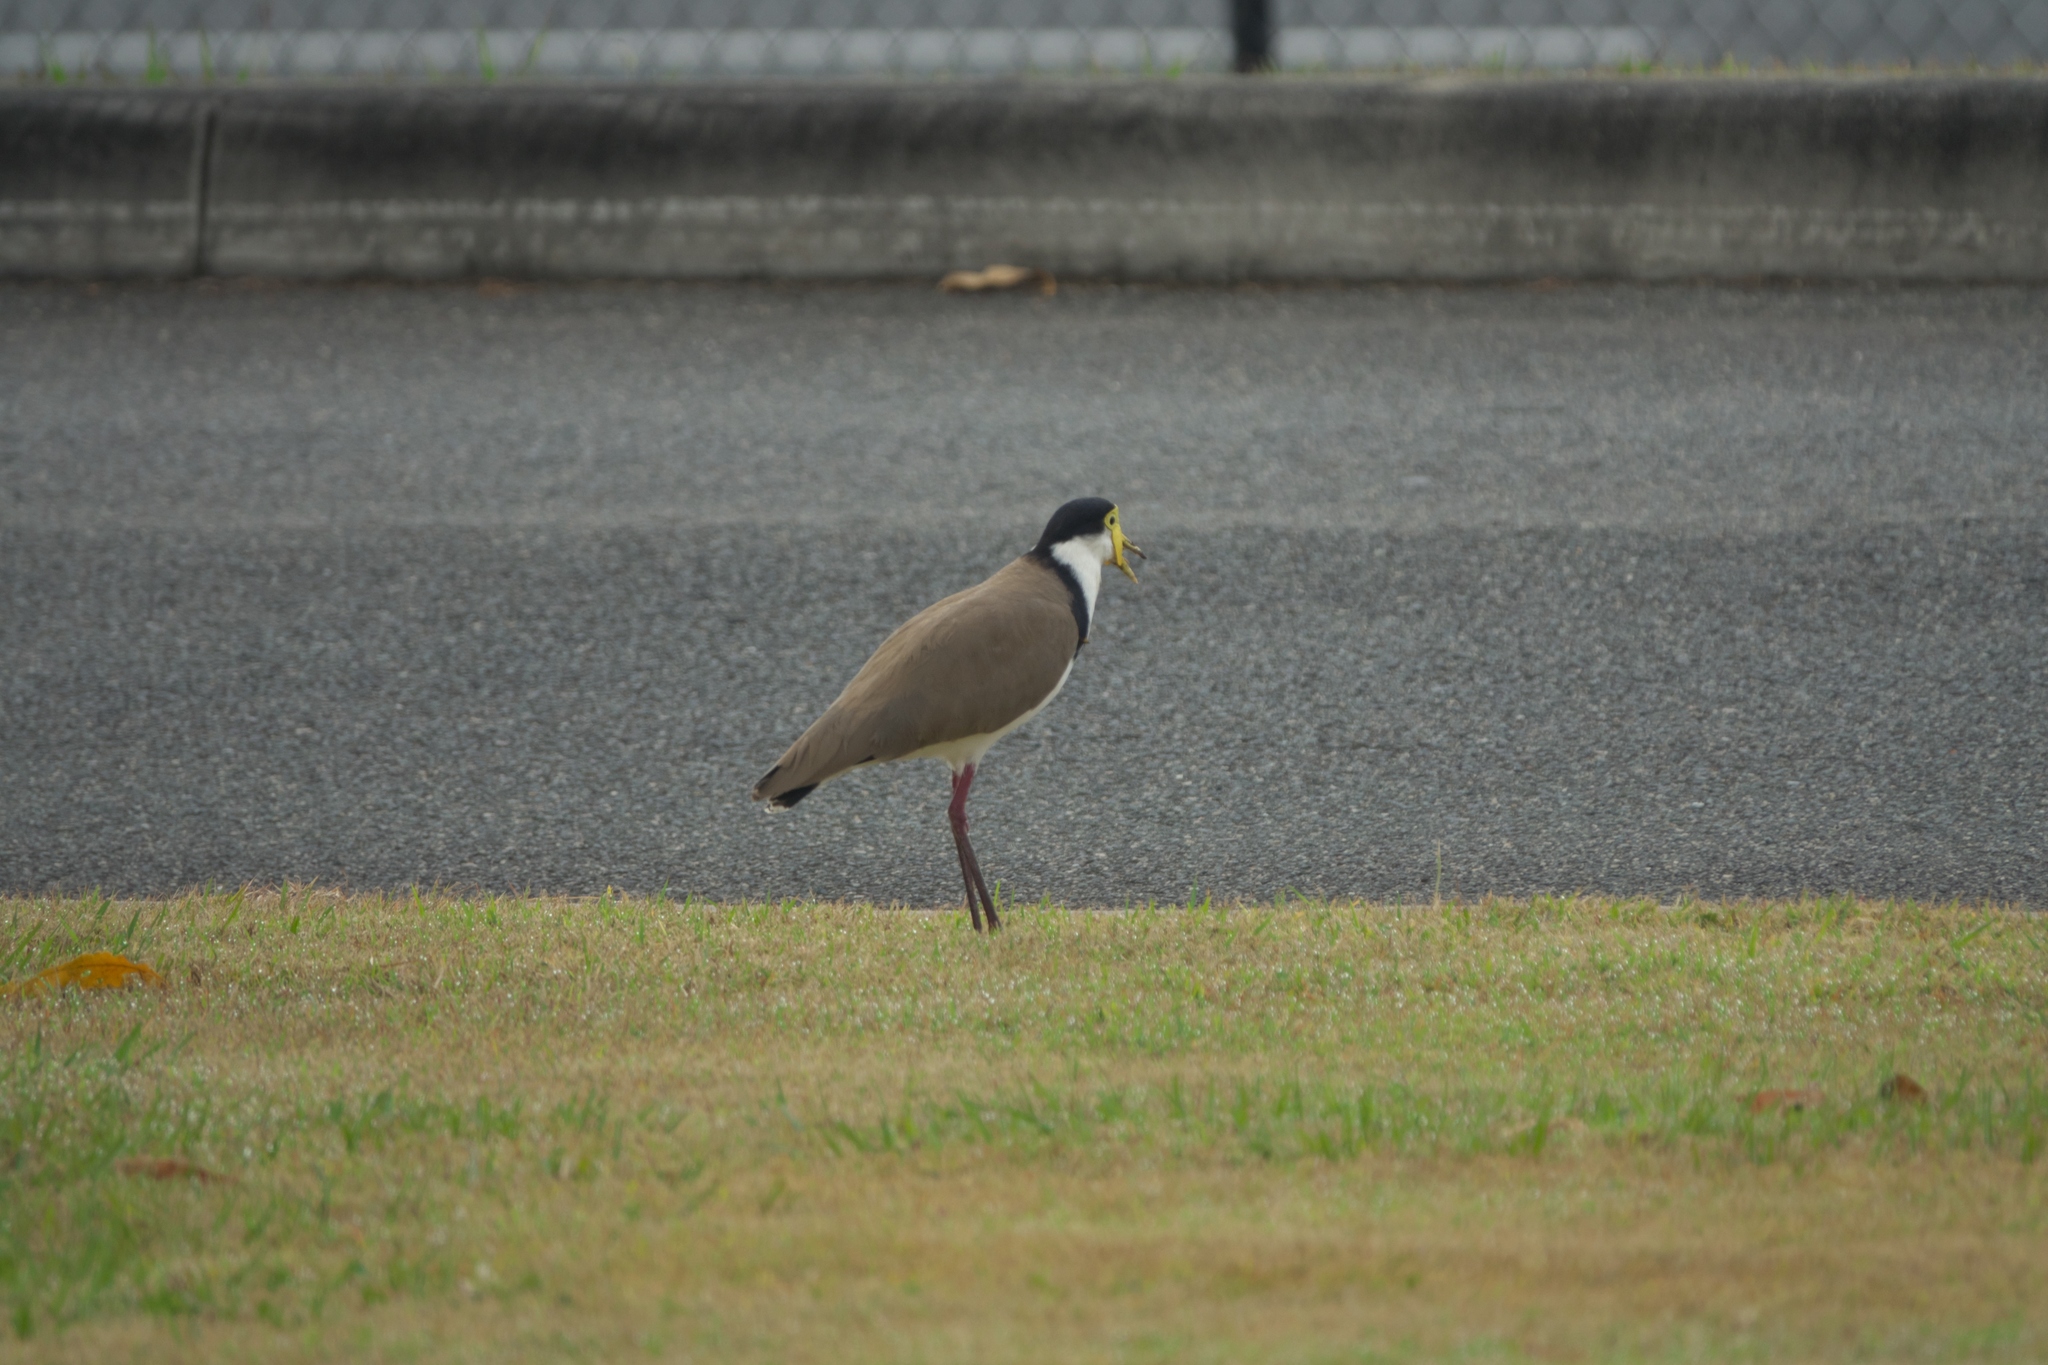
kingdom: Animalia
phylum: Chordata
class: Aves
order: Charadriiformes
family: Charadriidae
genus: Vanellus
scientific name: Vanellus miles
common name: Masked lapwing
